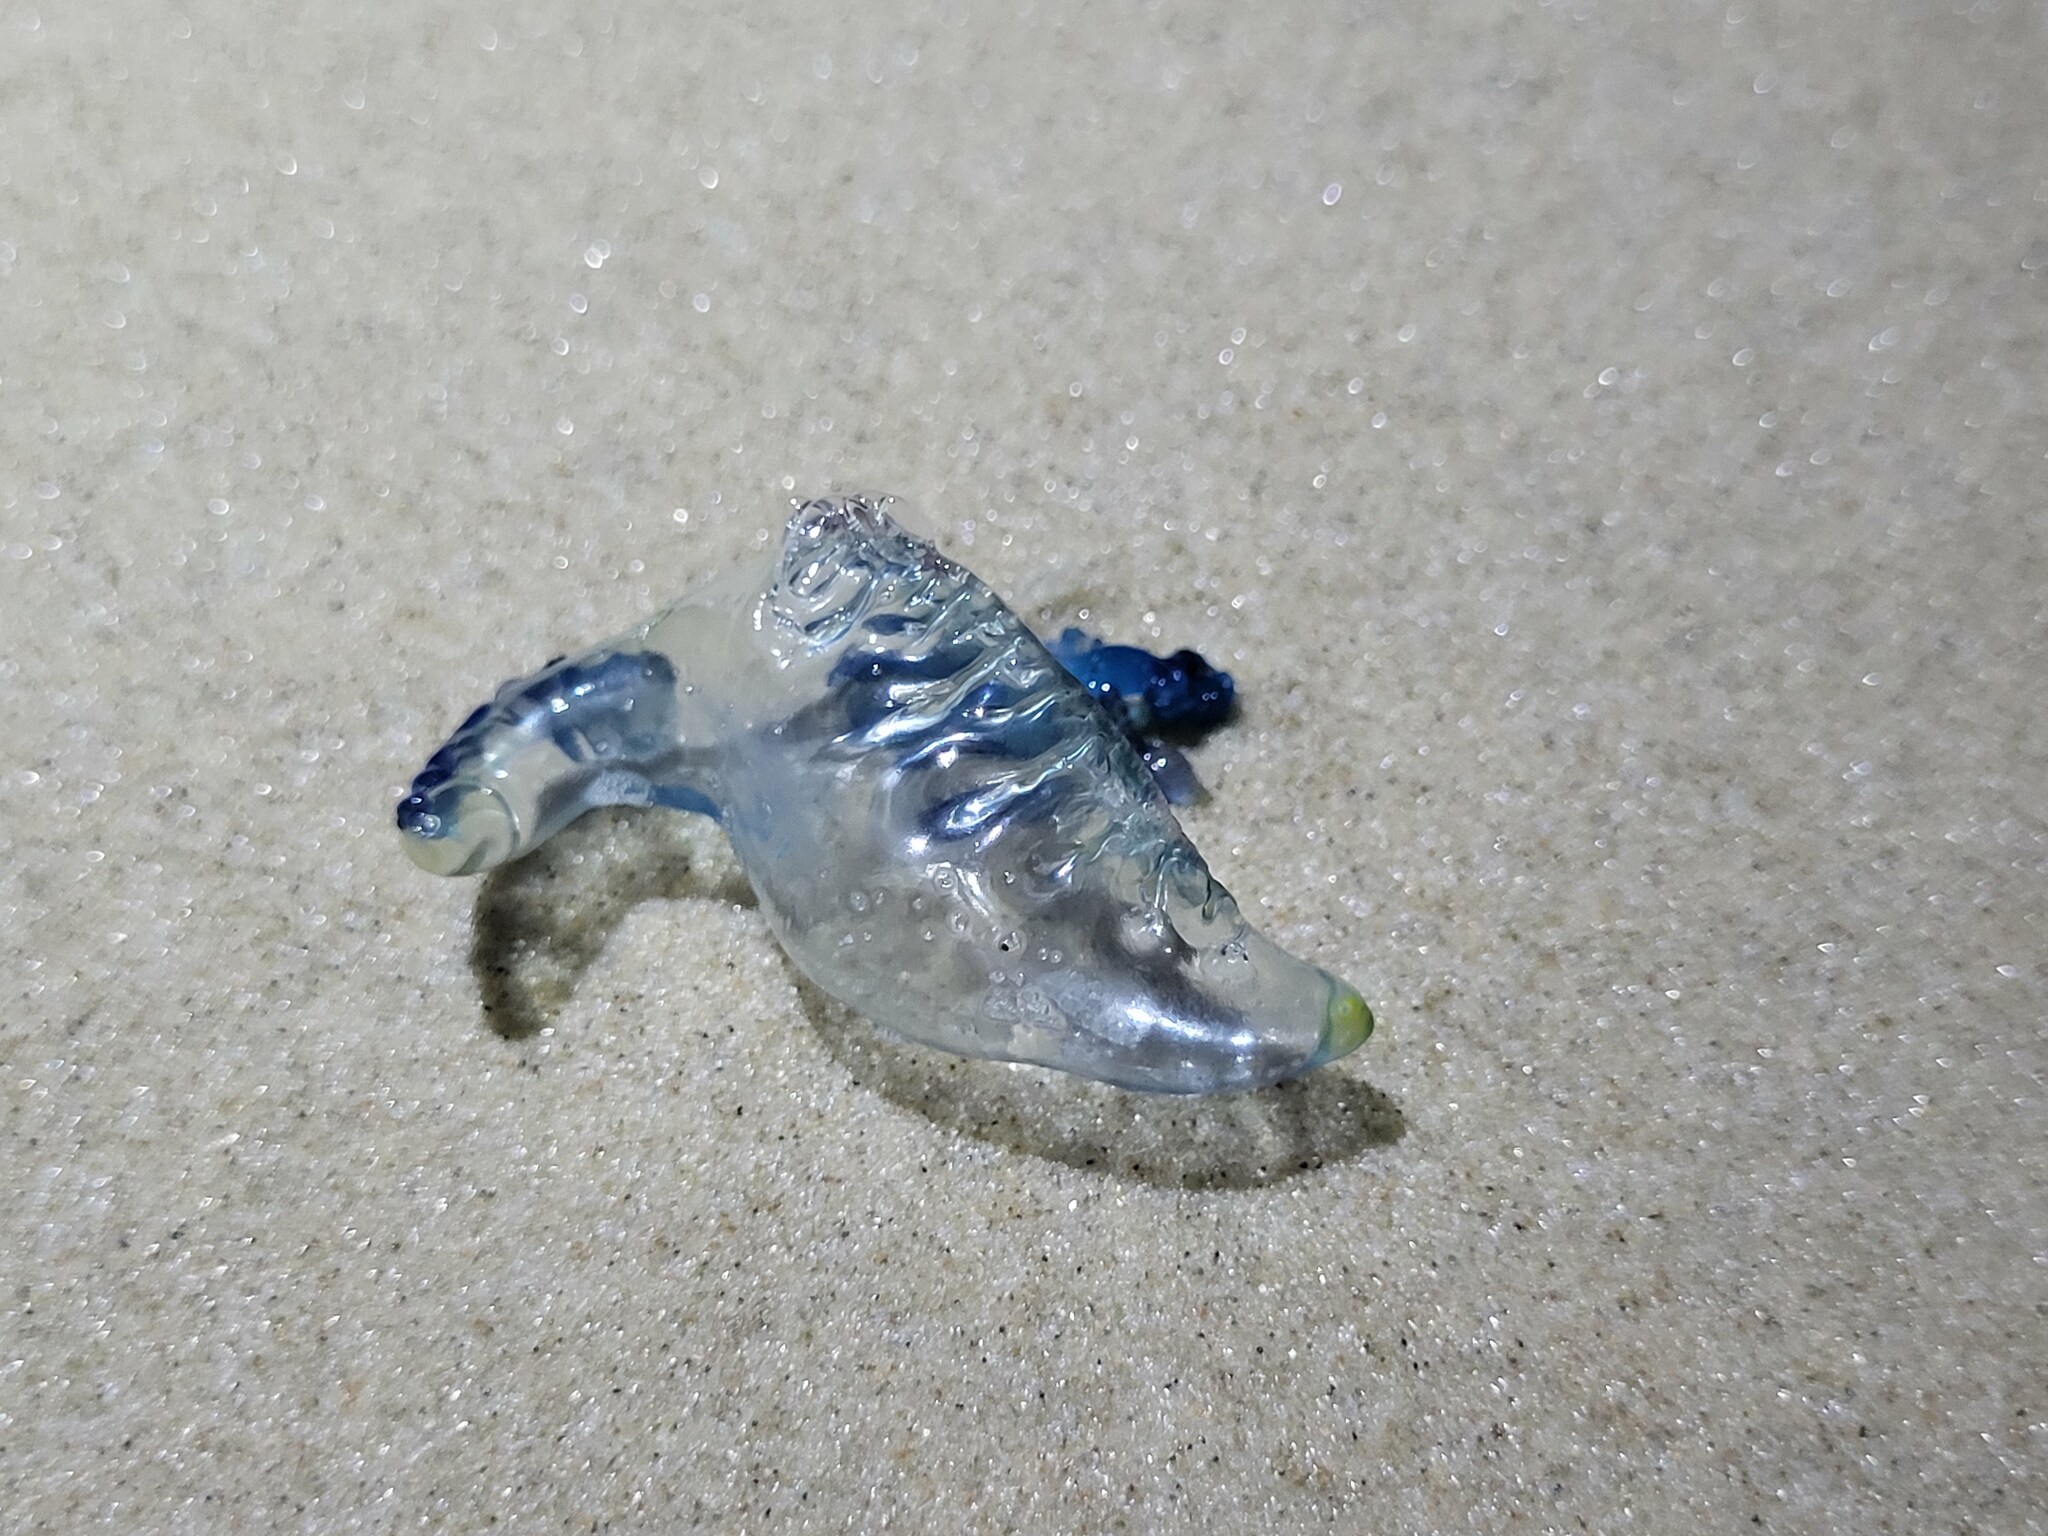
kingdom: Animalia
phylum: Cnidaria
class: Hydrozoa
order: Siphonophorae
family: Physaliidae
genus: Physalia
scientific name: Physalia physalis
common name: Portuguese man-of-war
